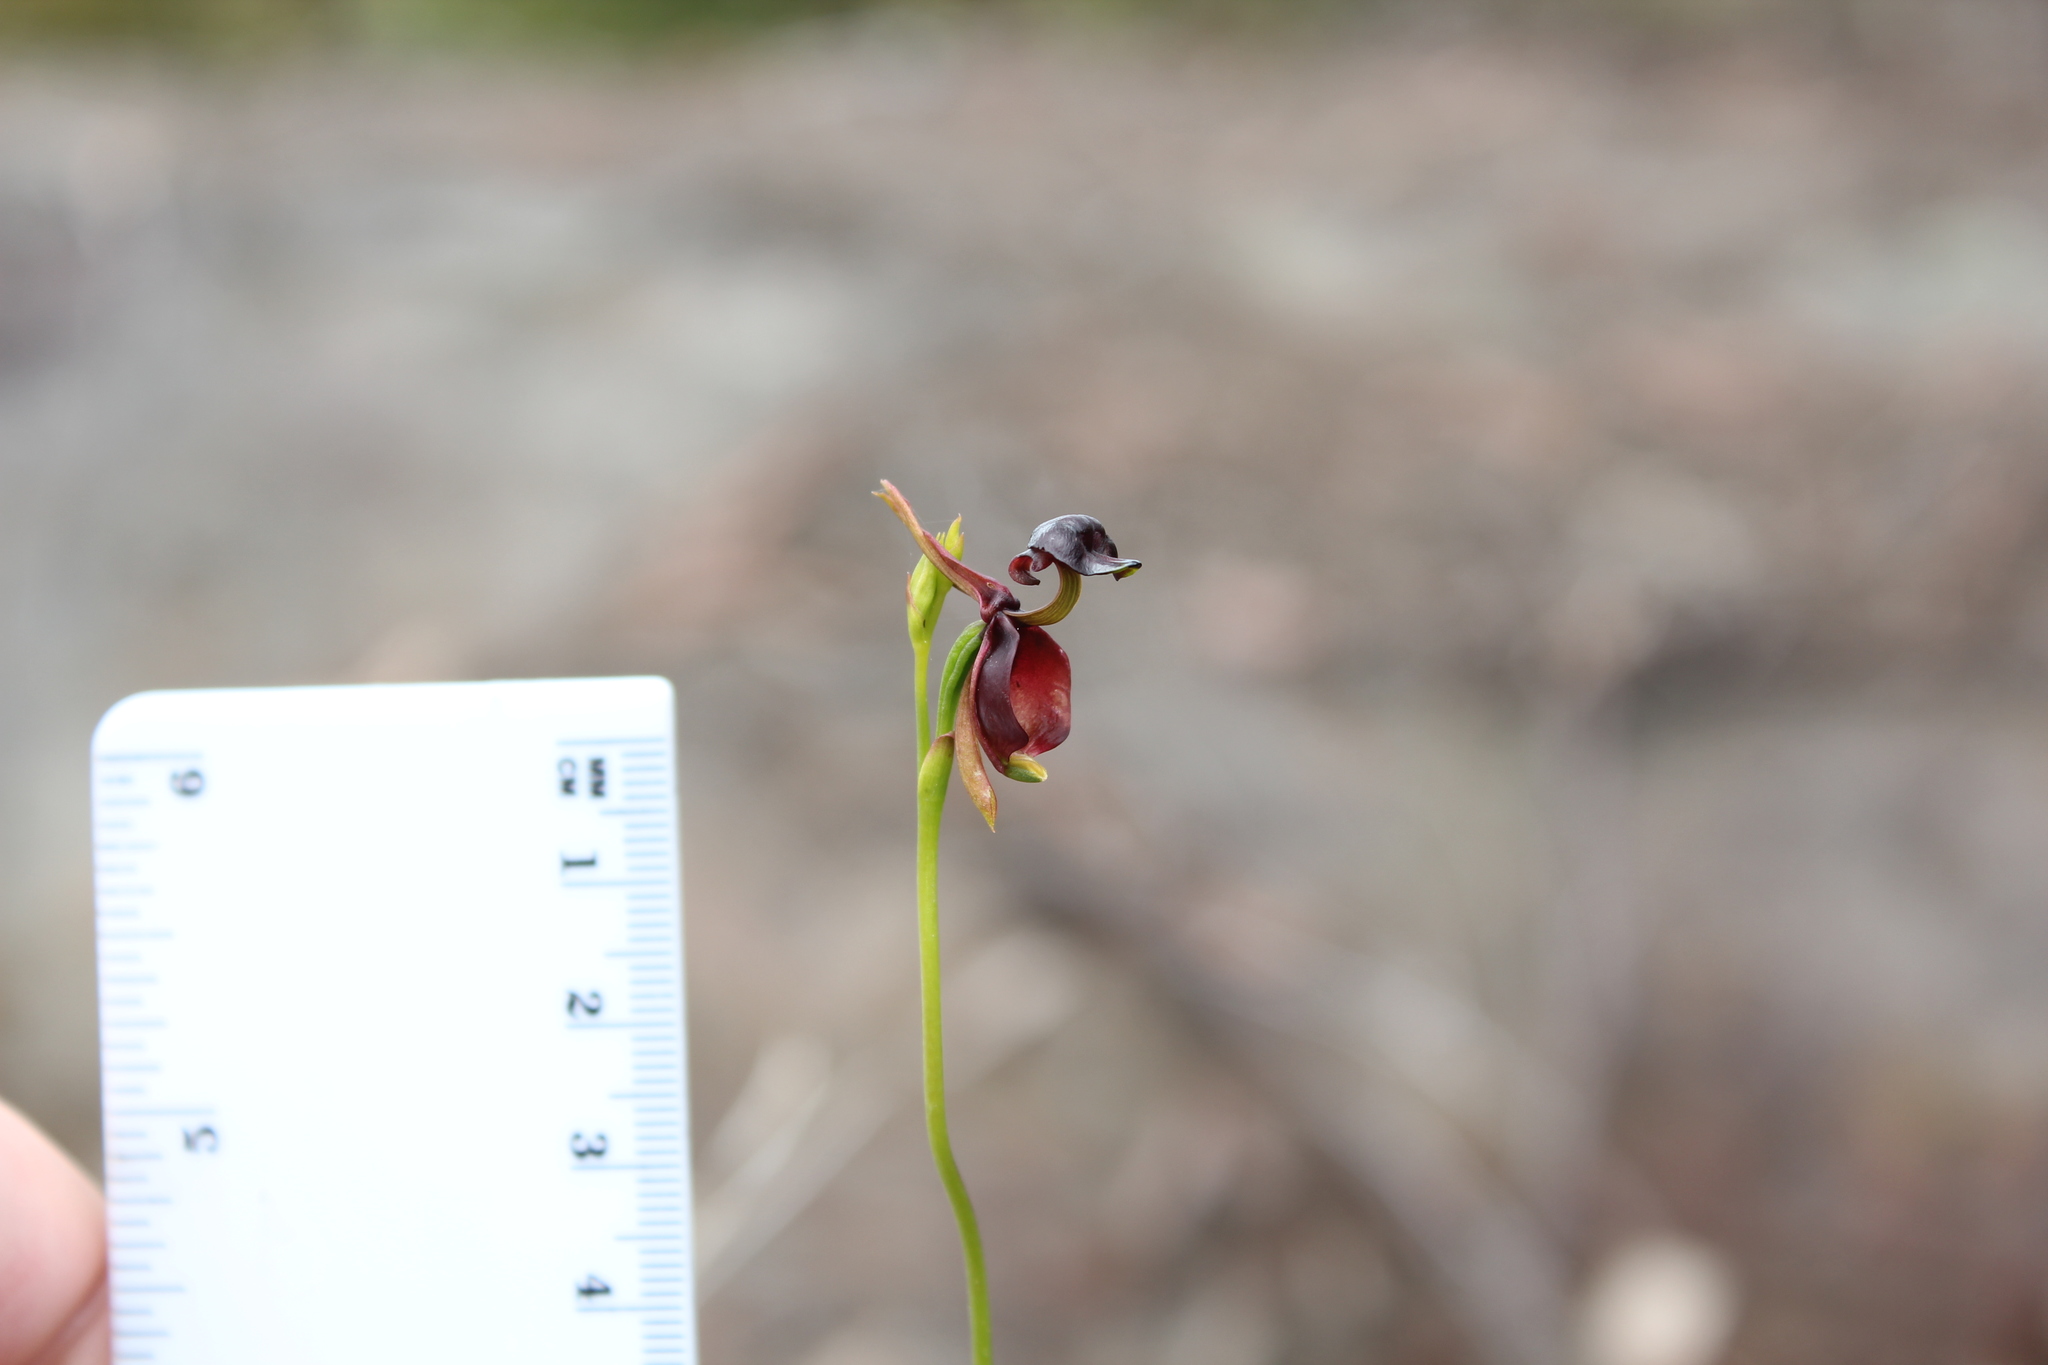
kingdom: Plantae
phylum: Tracheophyta
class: Liliopsida
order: Asparagales
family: Orchidaceae
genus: Caleana
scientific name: Caleana major
